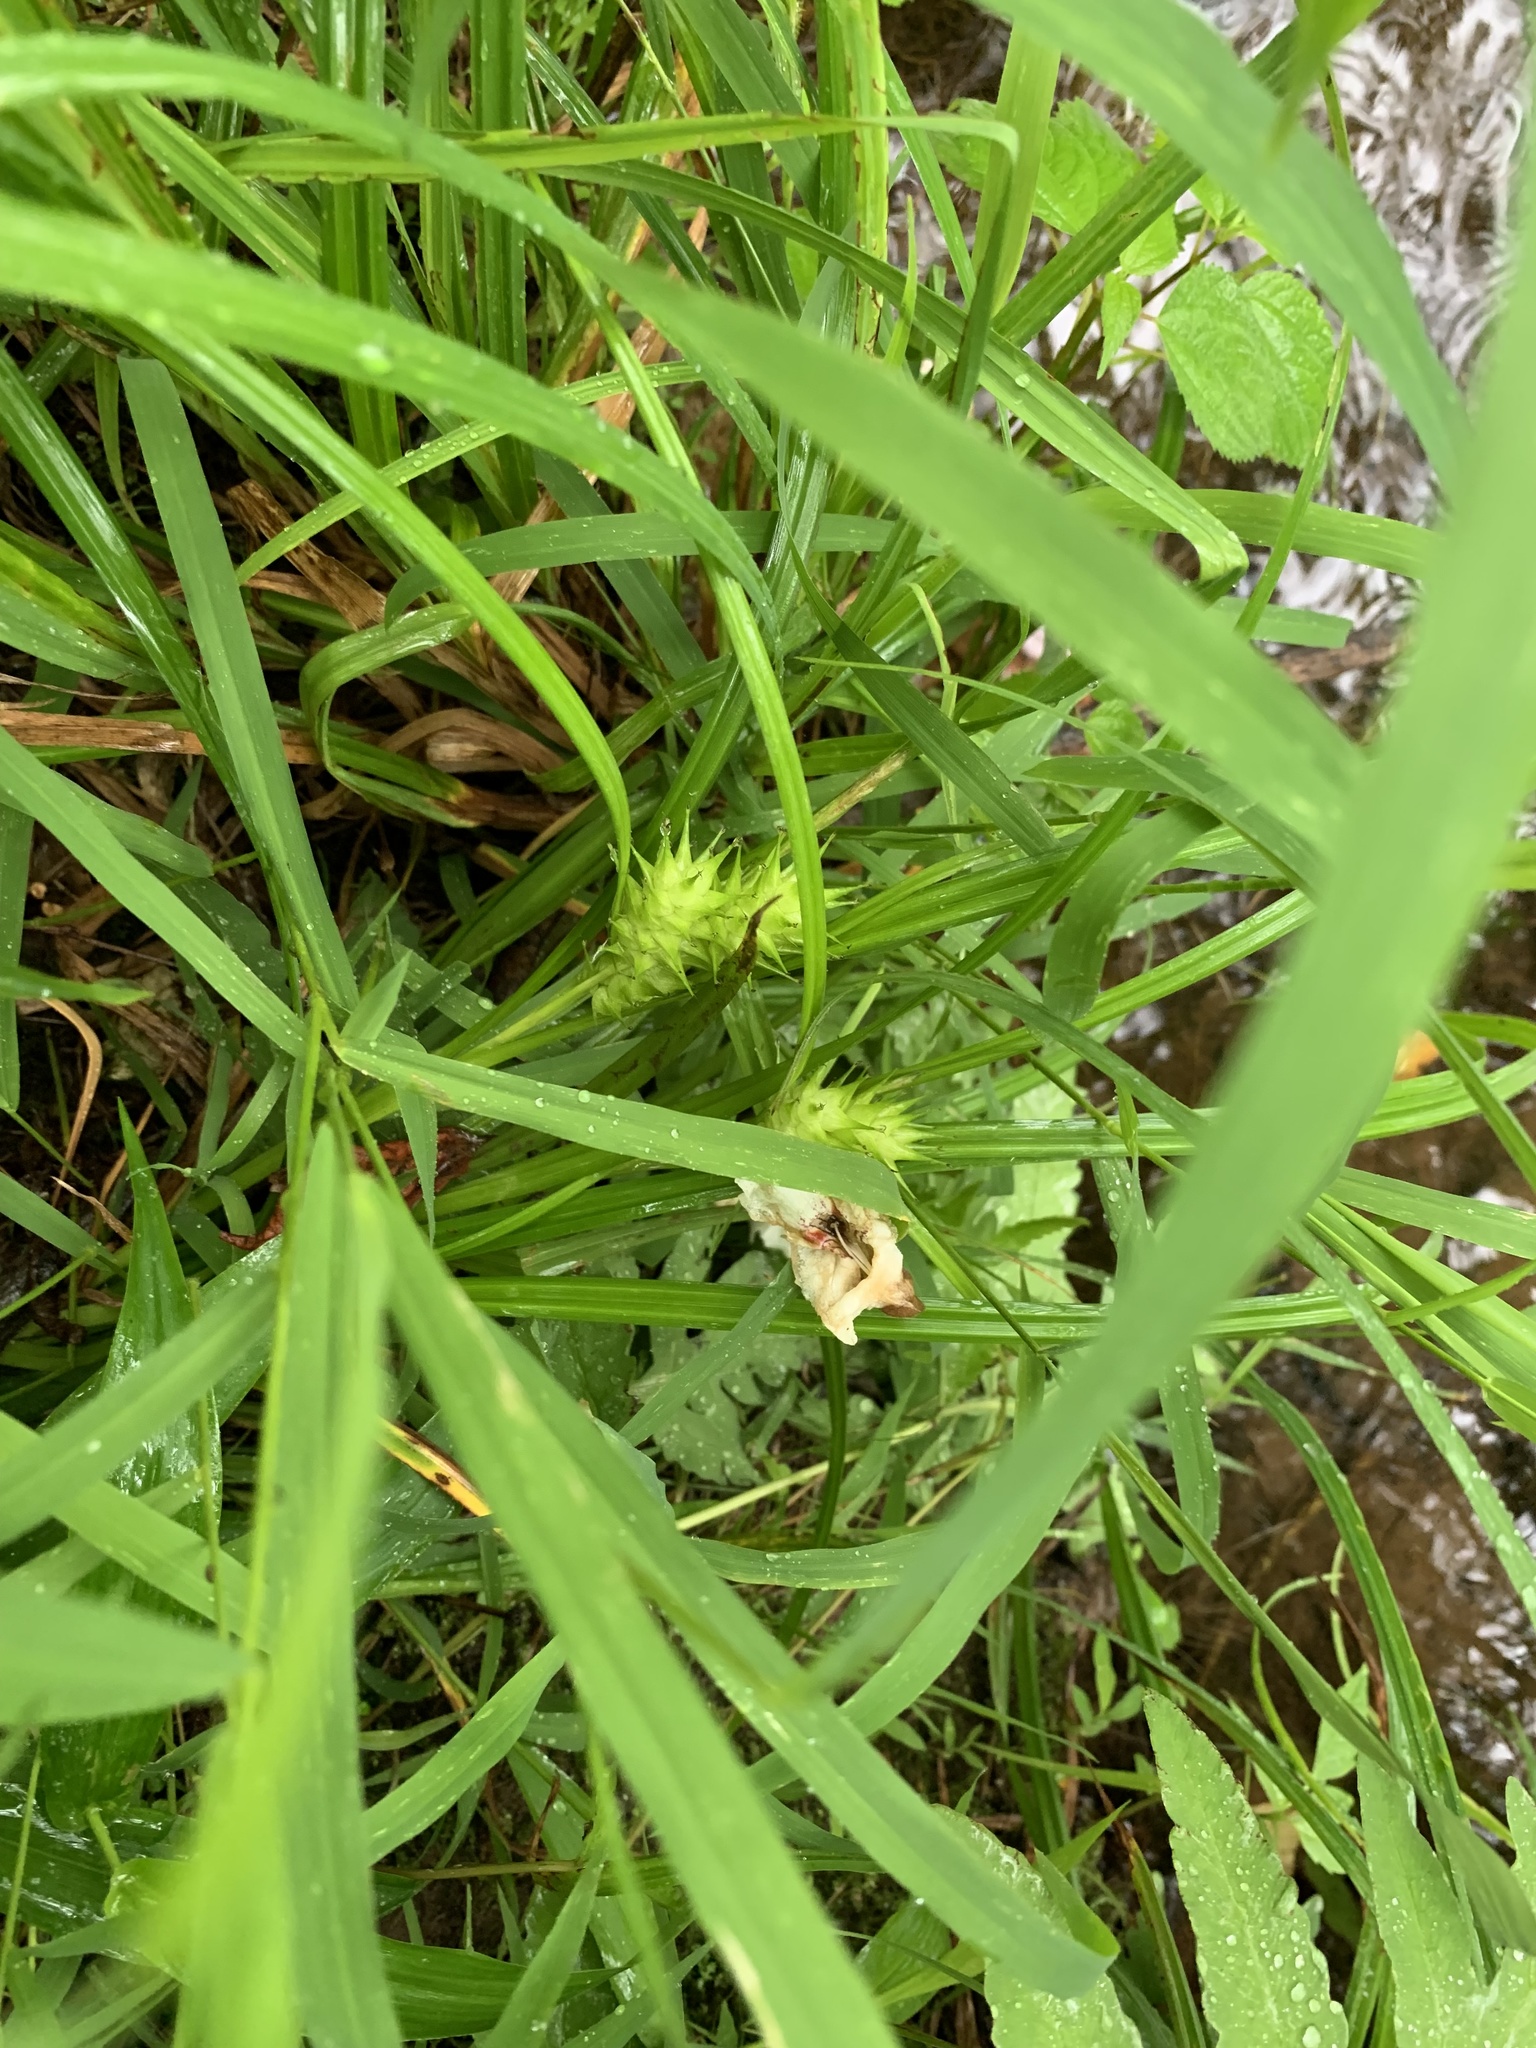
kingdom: Plantae
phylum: Tracheophyta
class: Liliopsida
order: Poales
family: Cyperaceae
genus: Carex
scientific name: Carex lupulina
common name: Hop sedge
